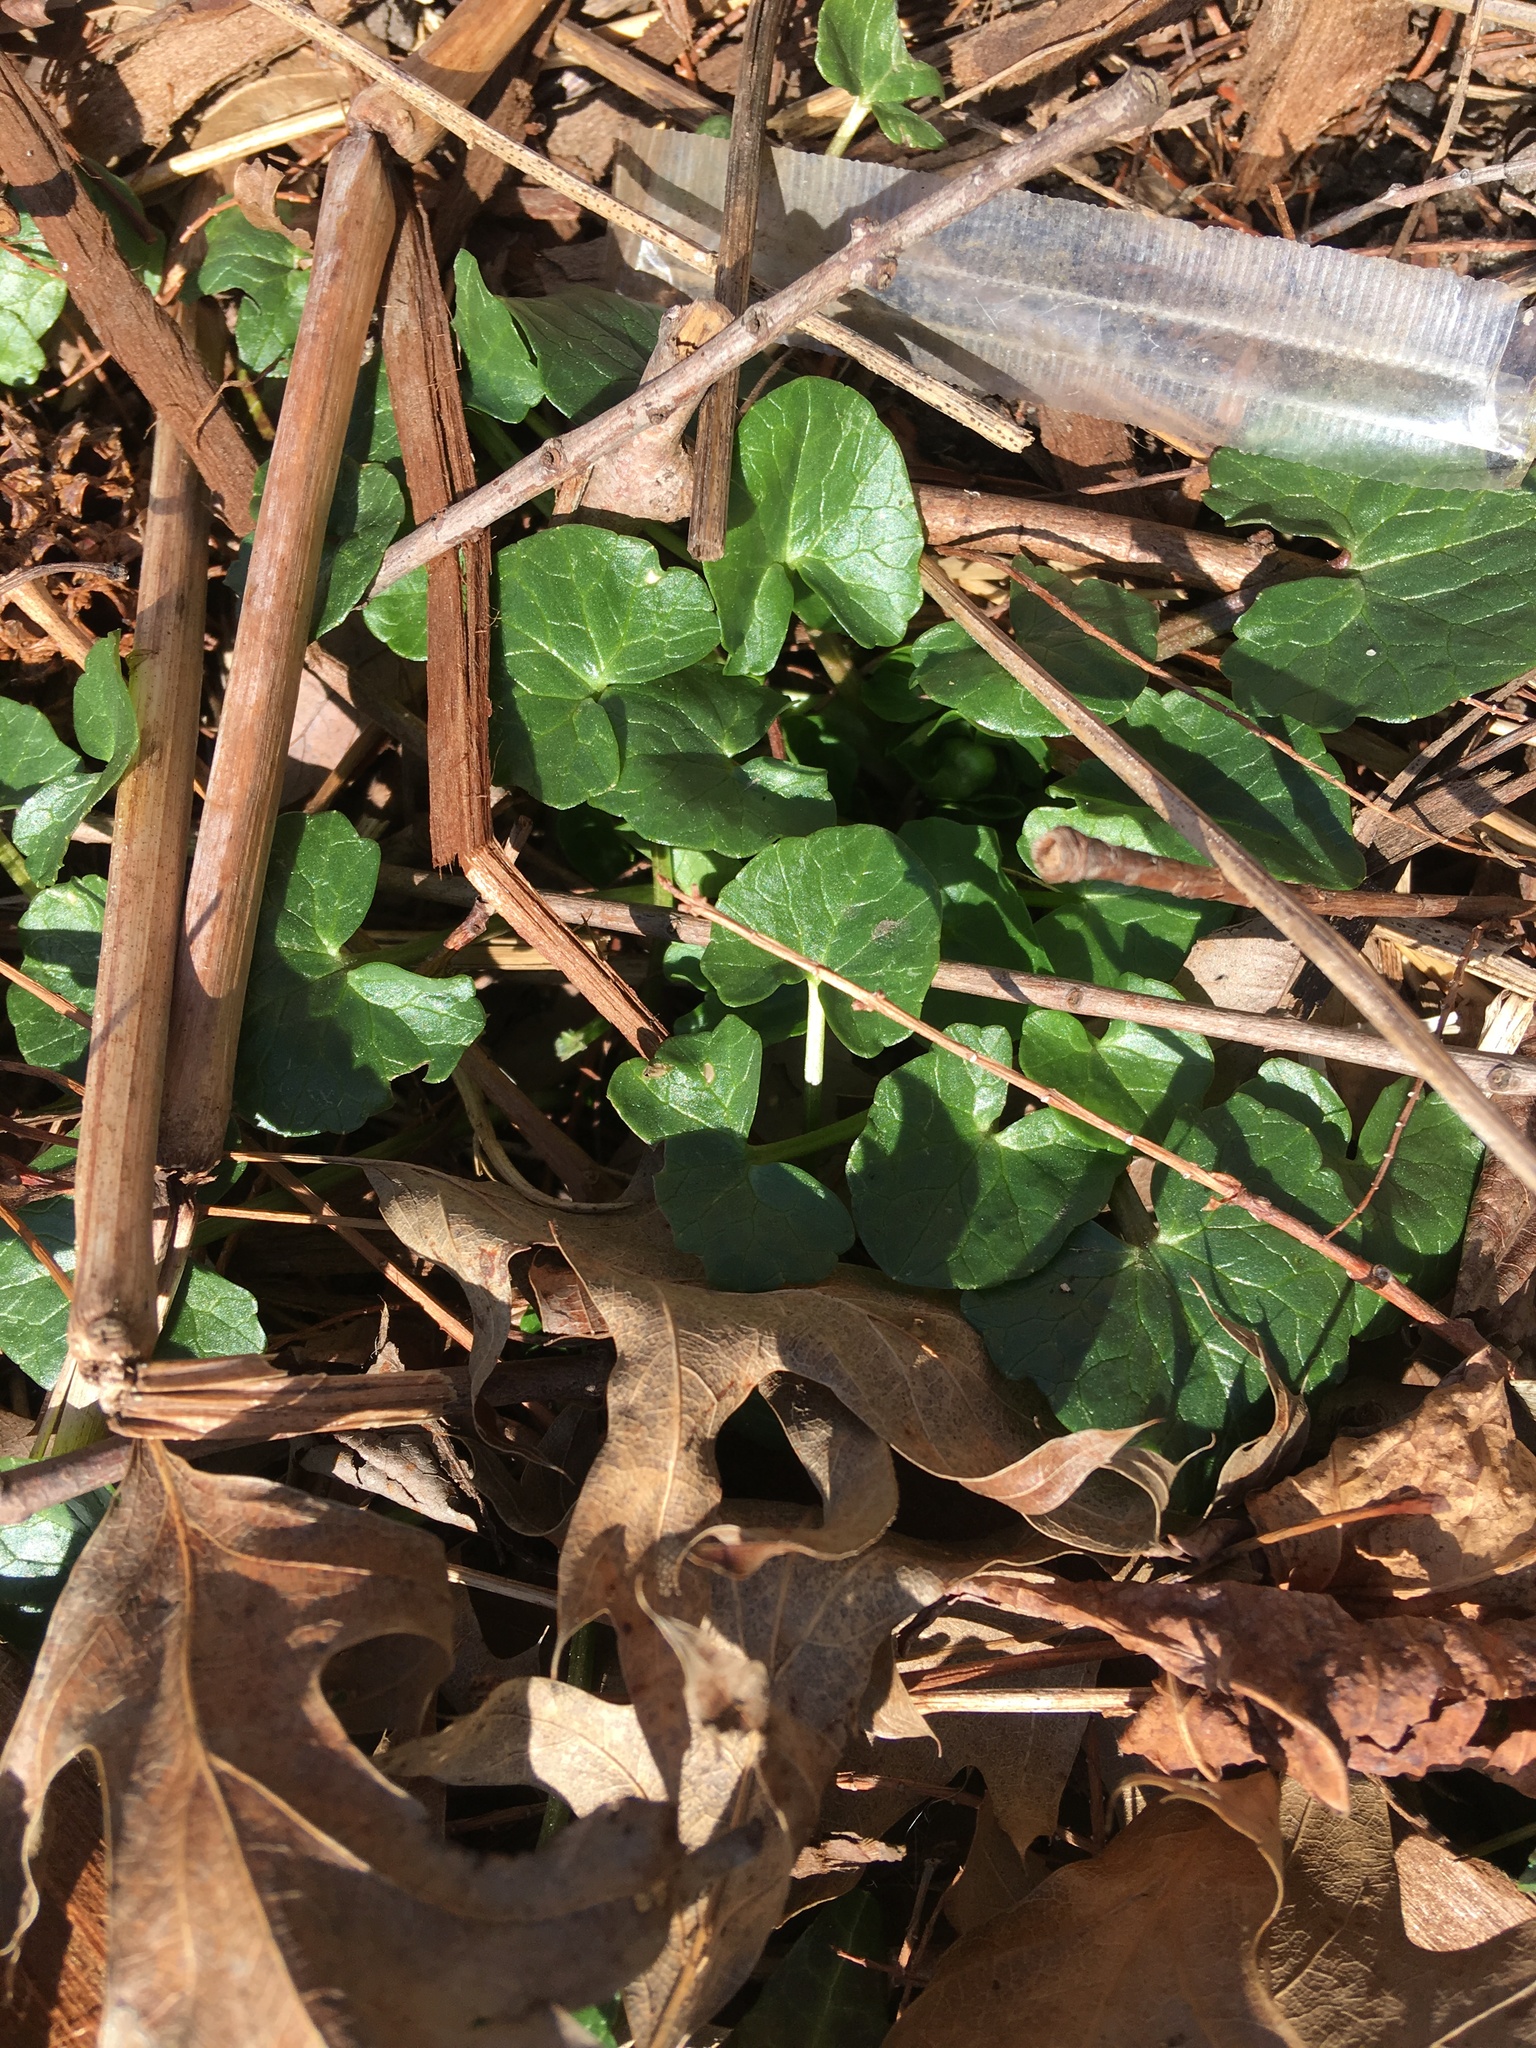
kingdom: Plantae
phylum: Tracheophyta
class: Magnoliopsida
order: Ranunculales
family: Ranunculaceae
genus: Ficaria
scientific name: Ficaria verna
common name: Lesser celandine
